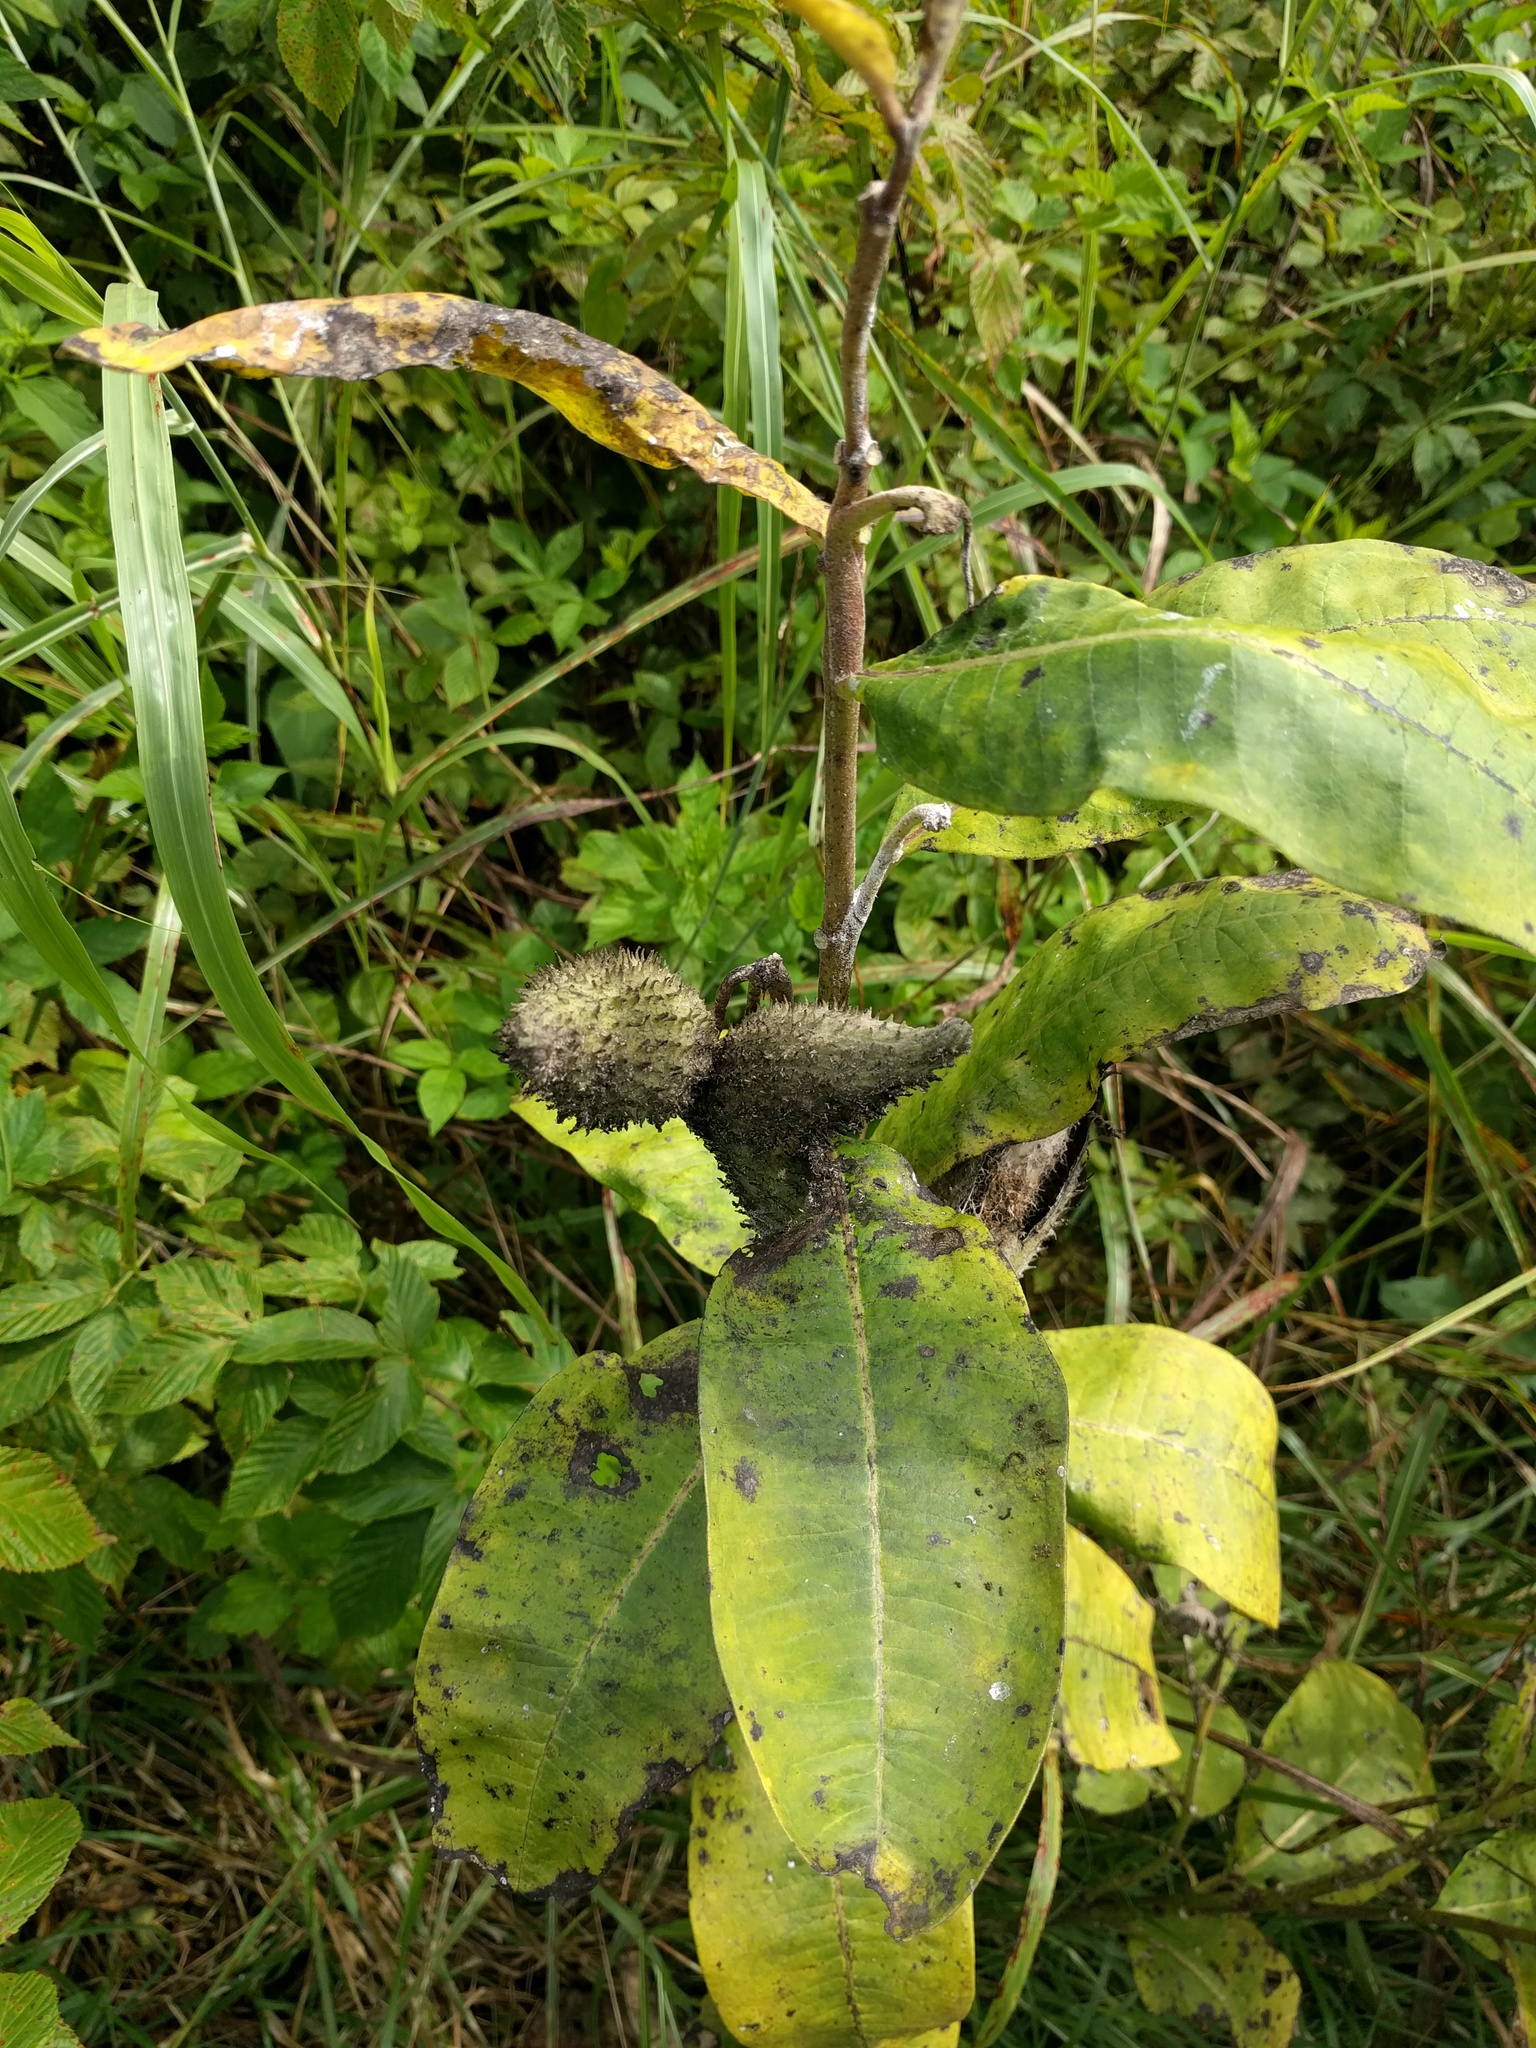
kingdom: Plantae
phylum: Tracheophyta
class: Magnoliopsida
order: Gentianales
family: Apocynaceae
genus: Asclepias
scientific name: Asclepias syriaca
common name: Common milkweed
